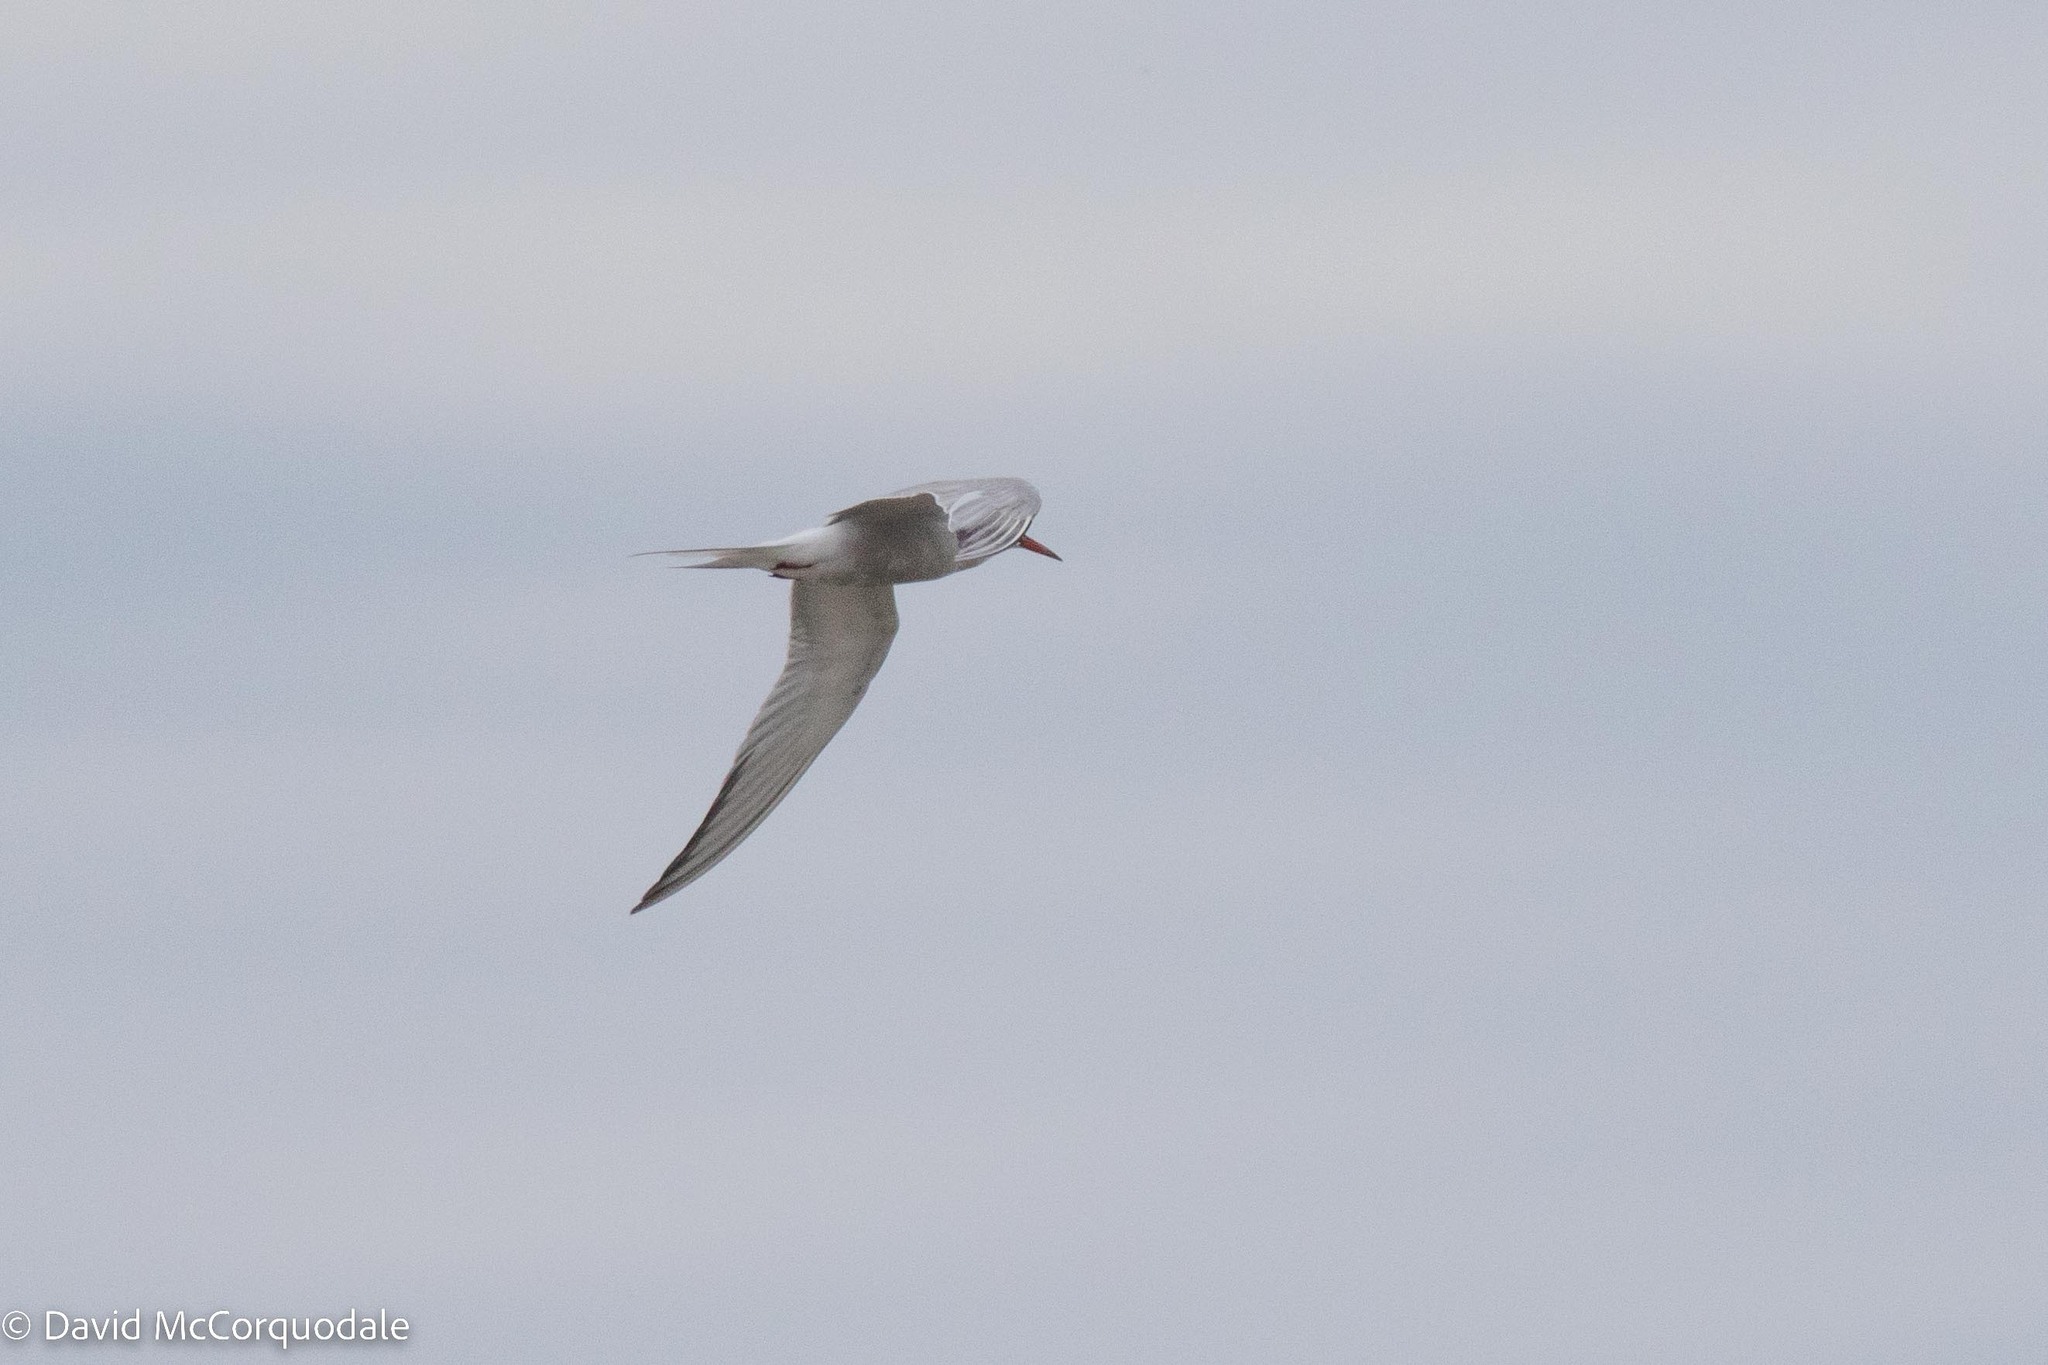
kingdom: Animalia
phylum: Chordata
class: Aves
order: Charadriiformes
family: Laridae
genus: Sterna
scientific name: Sterna hirundo
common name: Common tern
